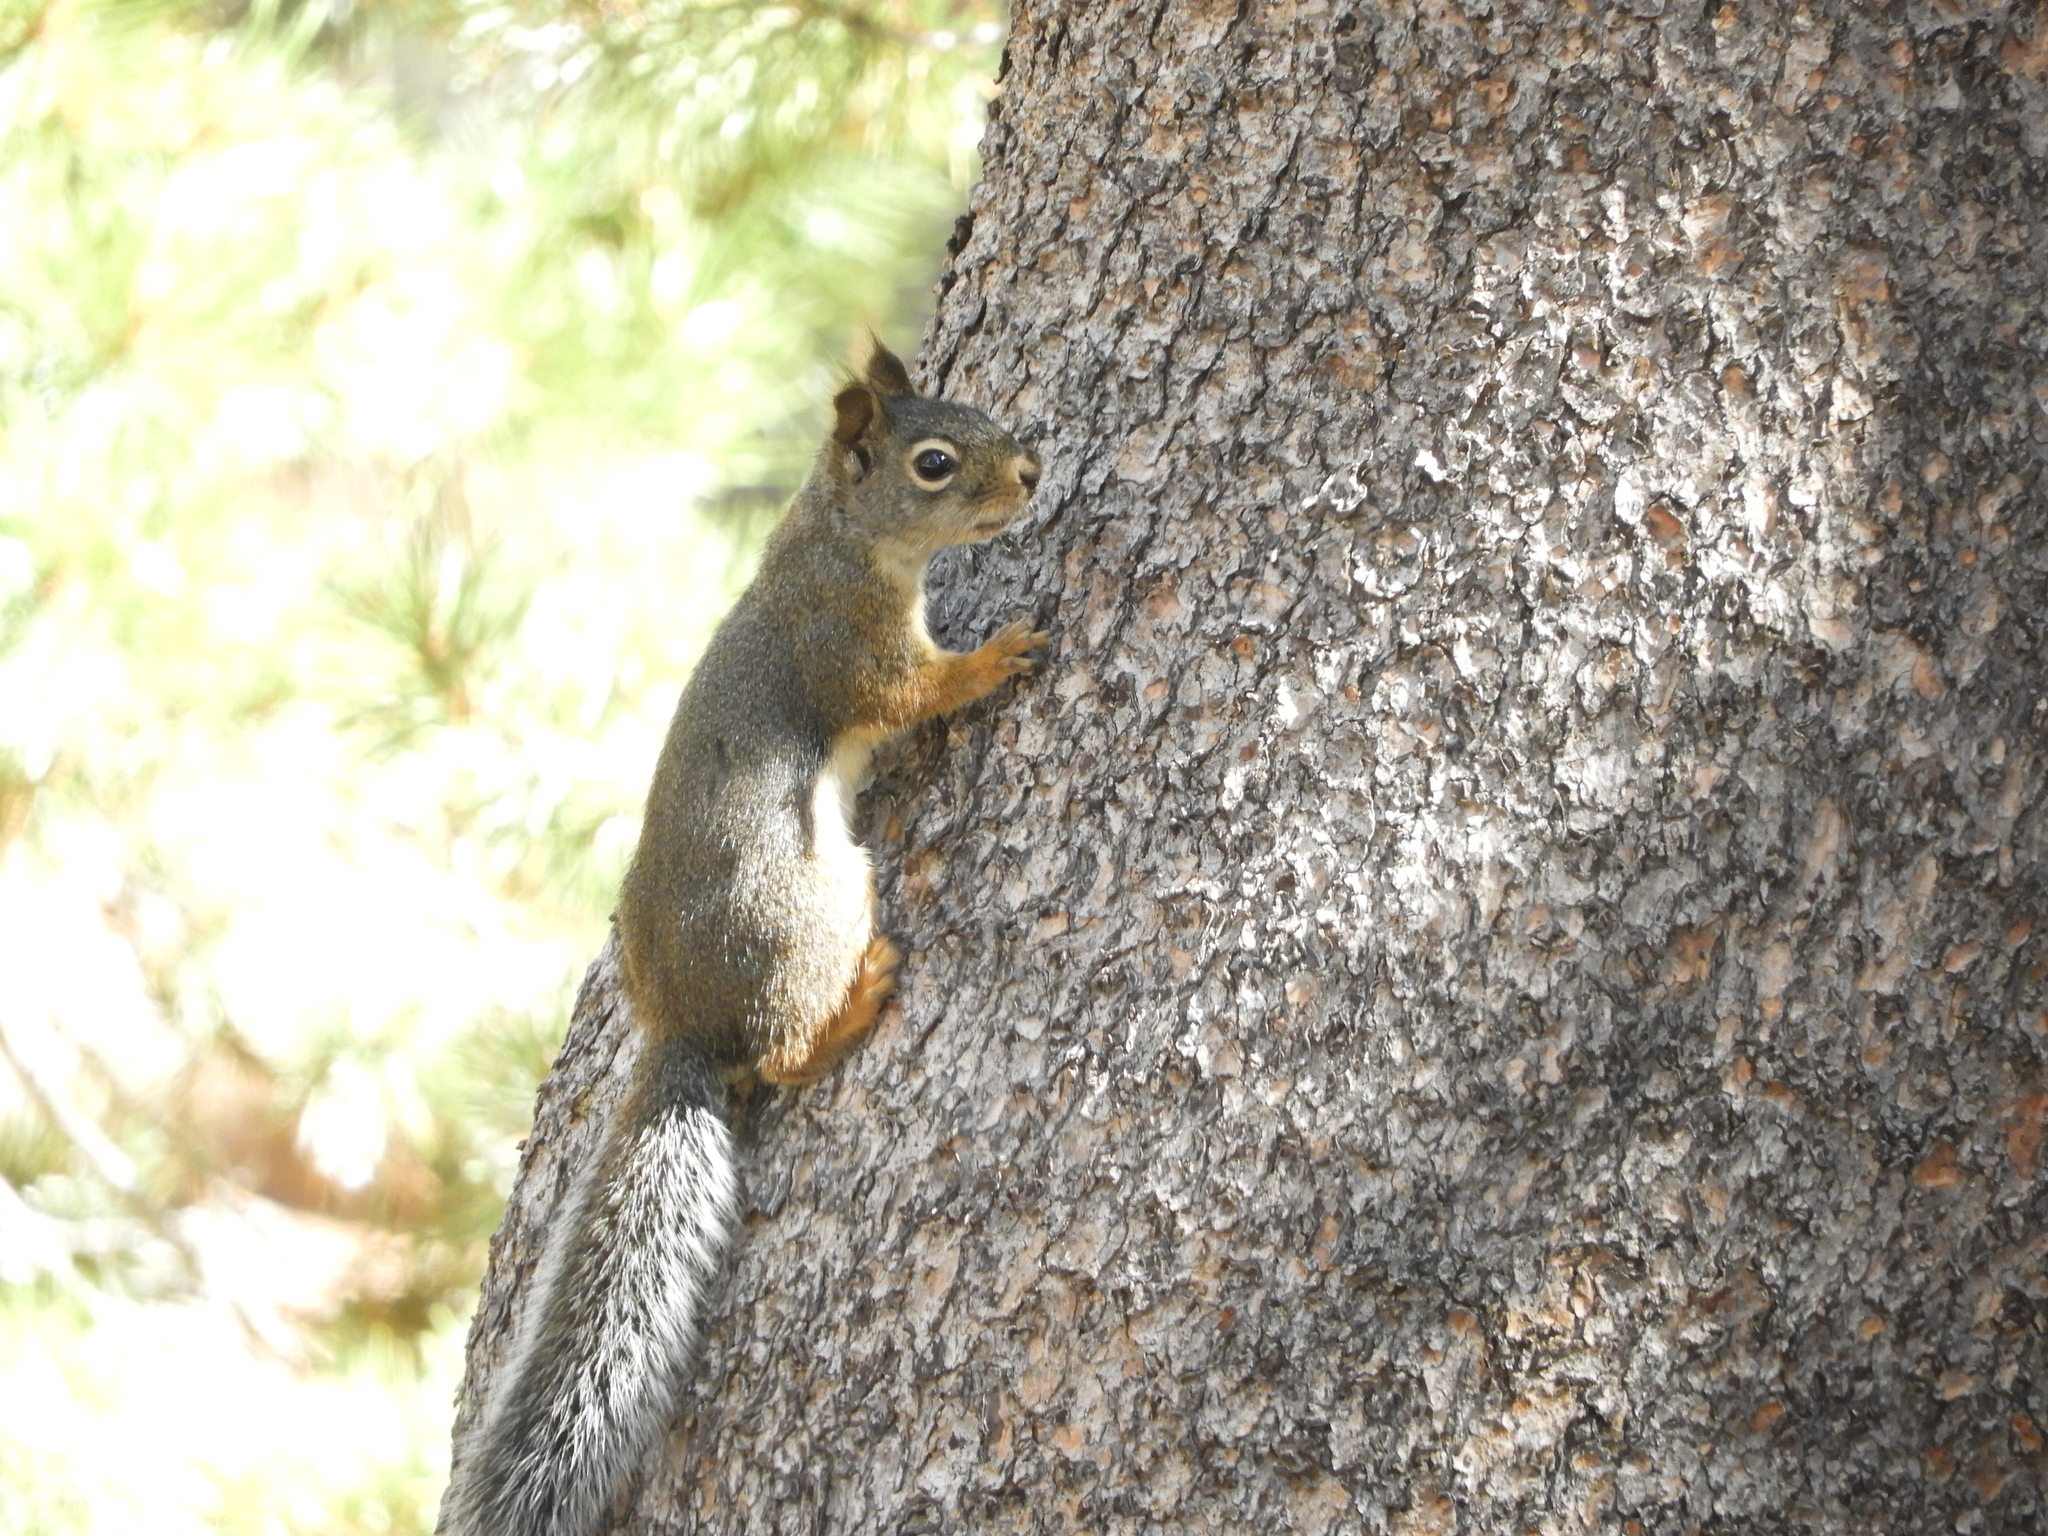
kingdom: Animalia
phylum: Chordata
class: Mammalia
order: Rodentia
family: Sciuridae
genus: Tamiasciurus
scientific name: Tamiasciurus douglasii
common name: Douglas's squirrel
